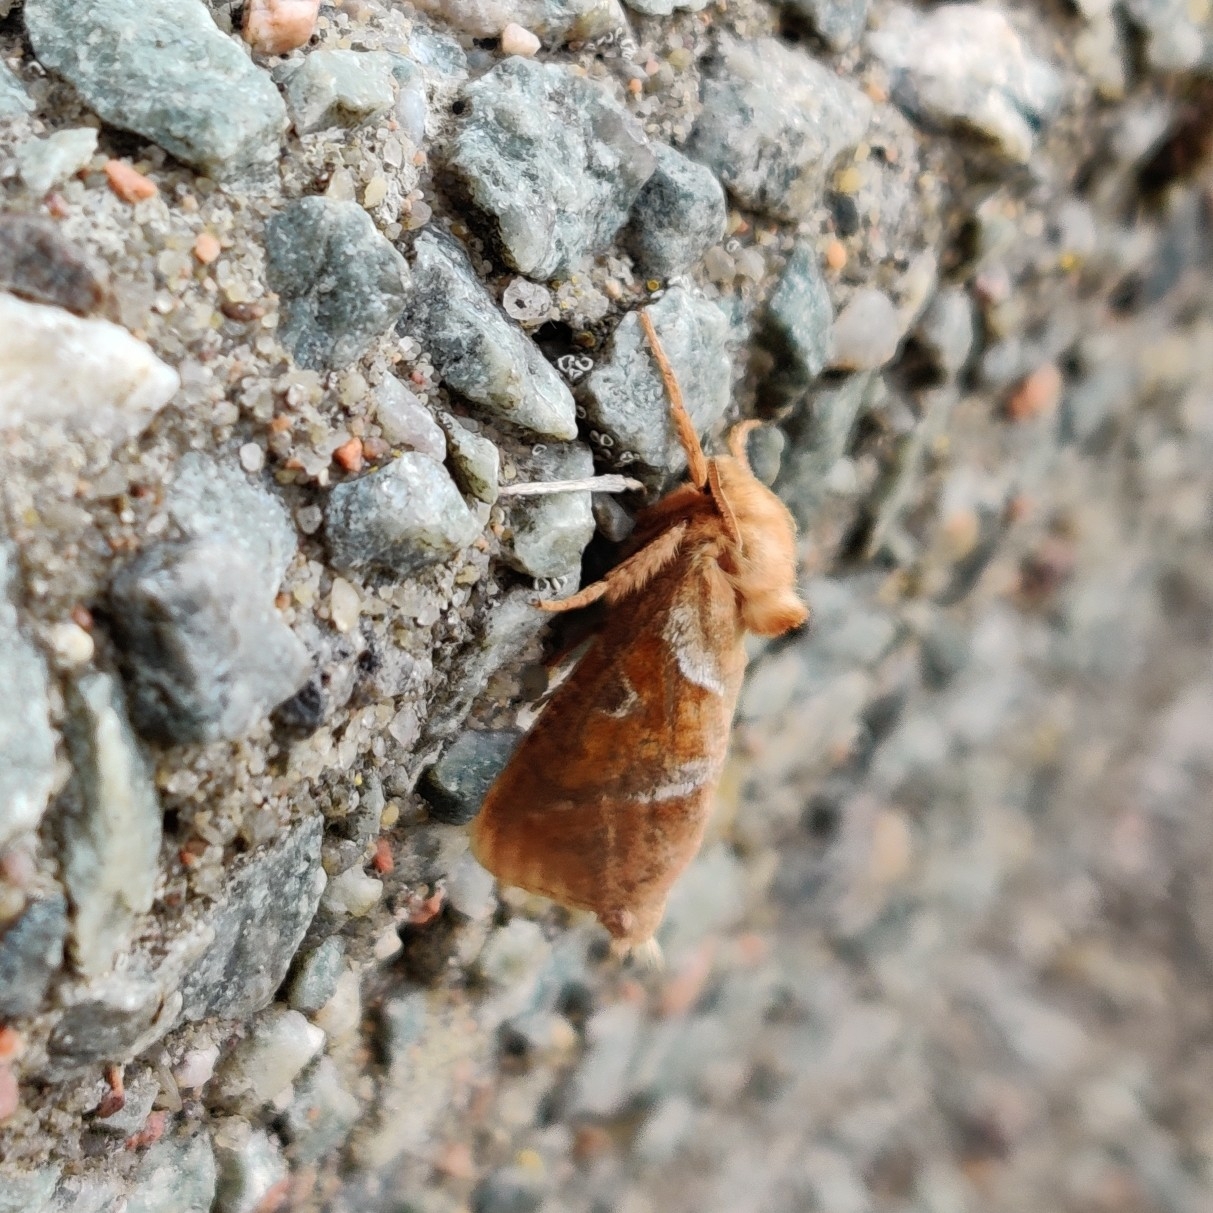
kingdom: Animalia
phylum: Arthropoda
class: Insecta
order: Lepidoptera
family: Hepialidae
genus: Triodia
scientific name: Triodia sylvina
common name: Orange swift
